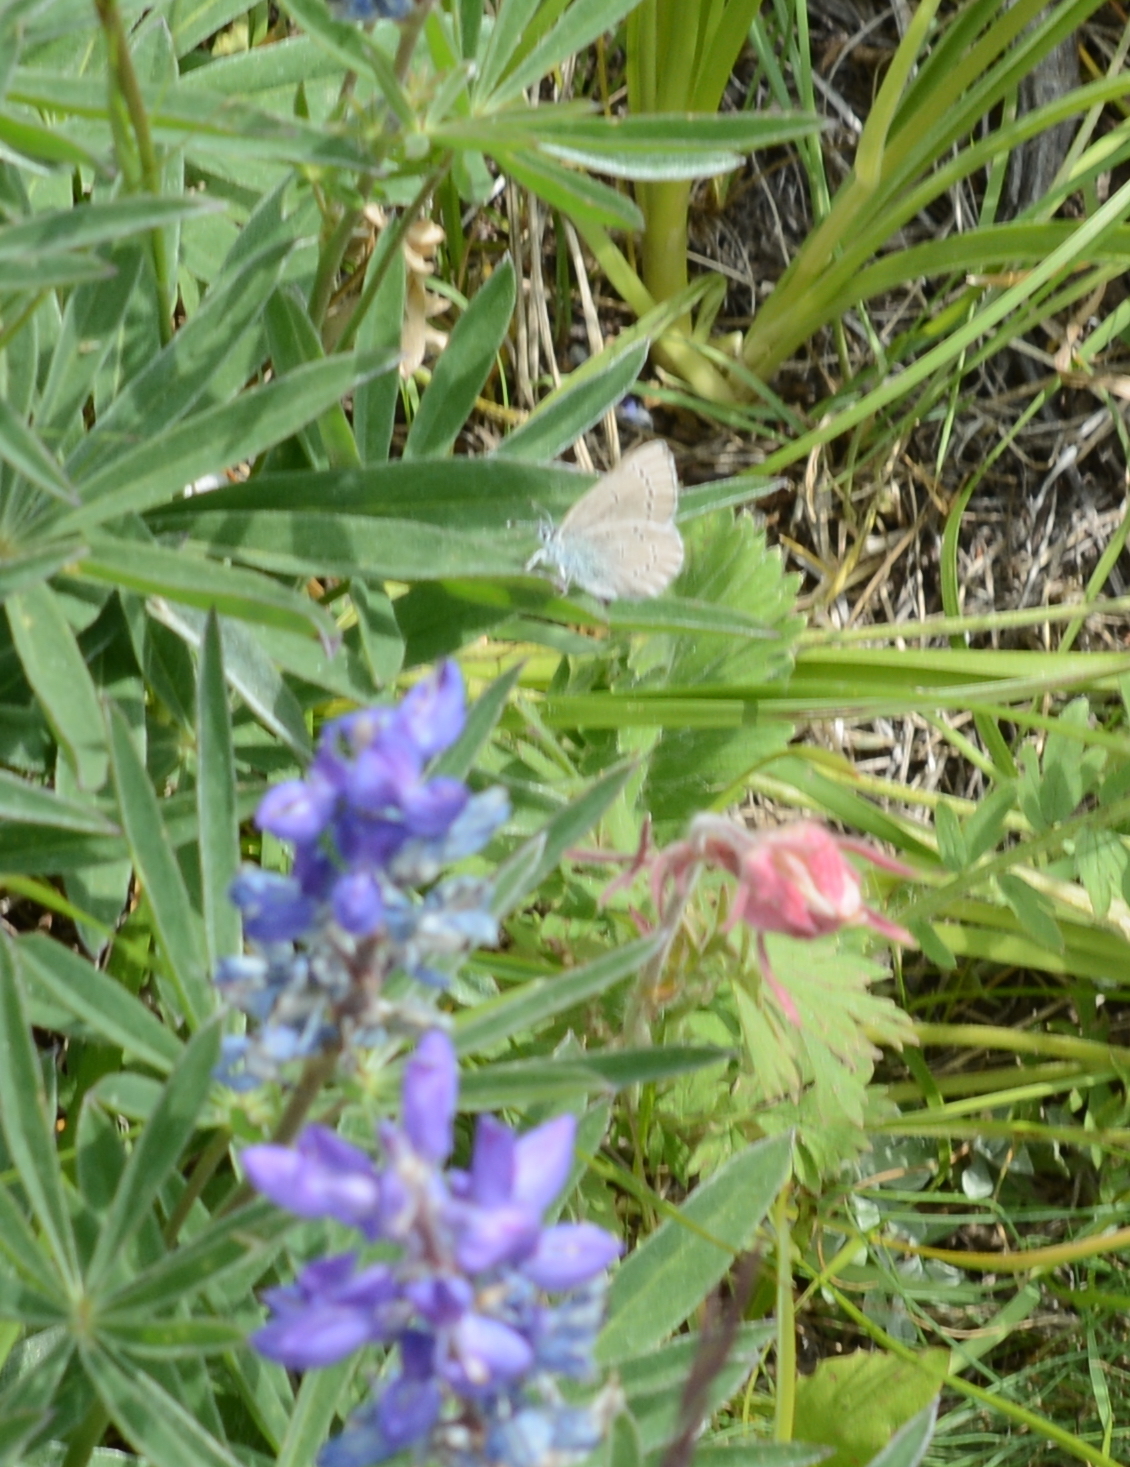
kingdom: Animalia
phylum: Arthropoda
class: Insecta
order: Lepidoptera
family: Lycaenidae
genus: Glaucopsyche
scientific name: Glaucopsyche lygdamus
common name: Silvery blue
